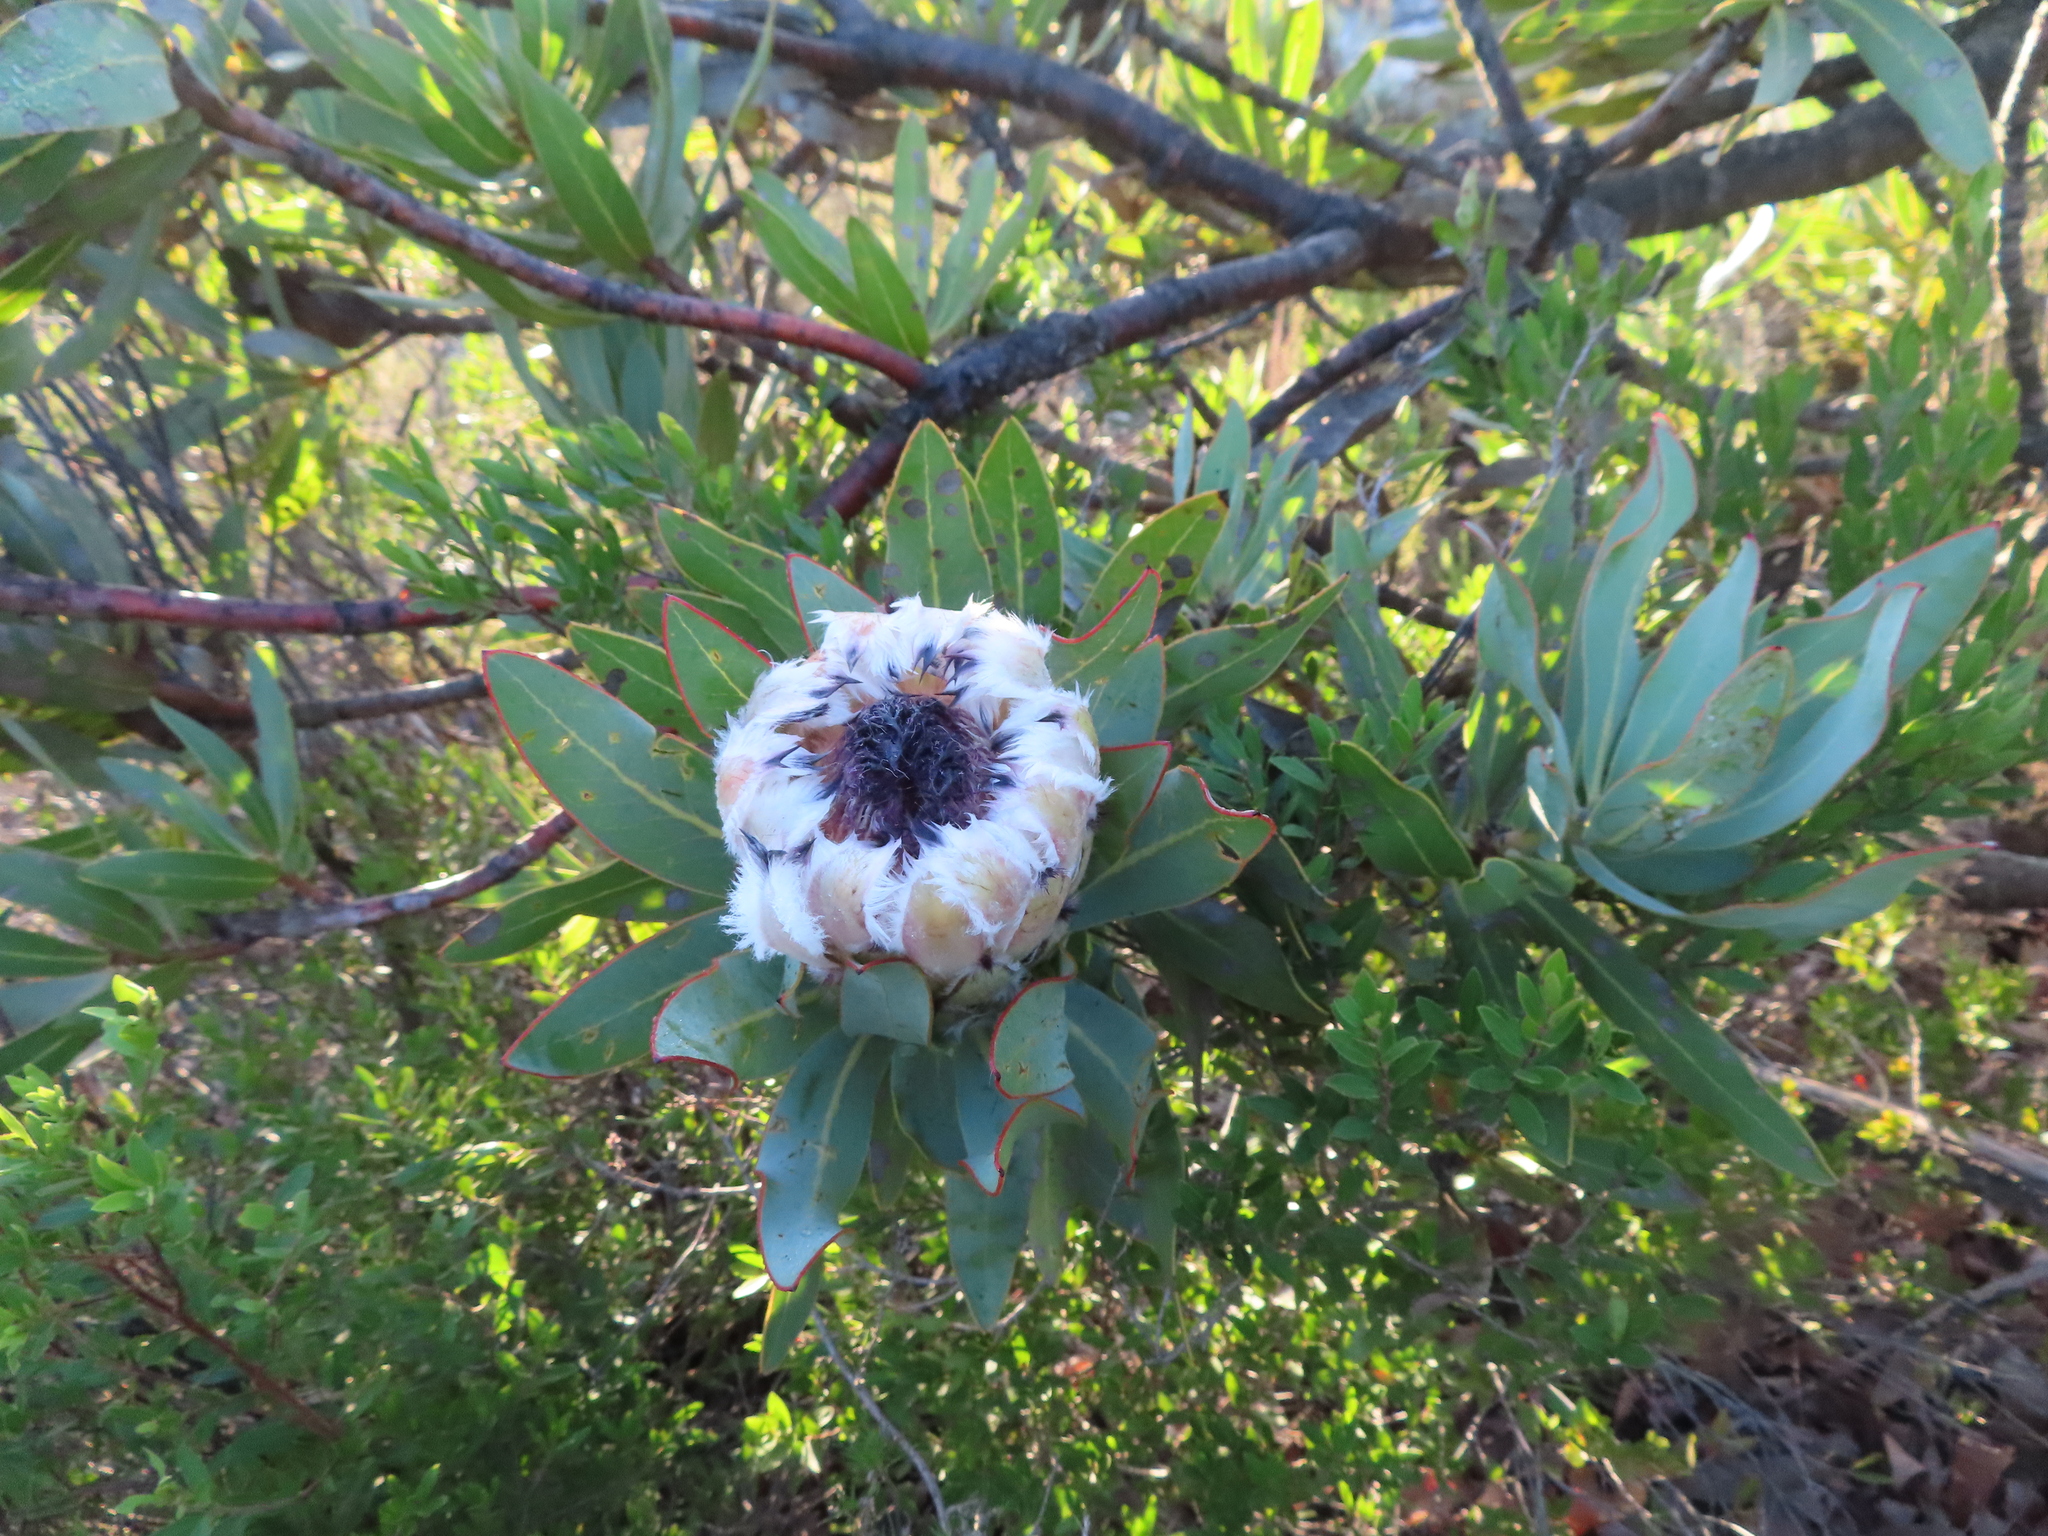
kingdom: Plantae
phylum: Tracheophyta
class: Magnoliopsida
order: Proteales
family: Proteaceae
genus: Protea
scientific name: Protea laurifolia
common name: Grey-leaf sugarbsh
